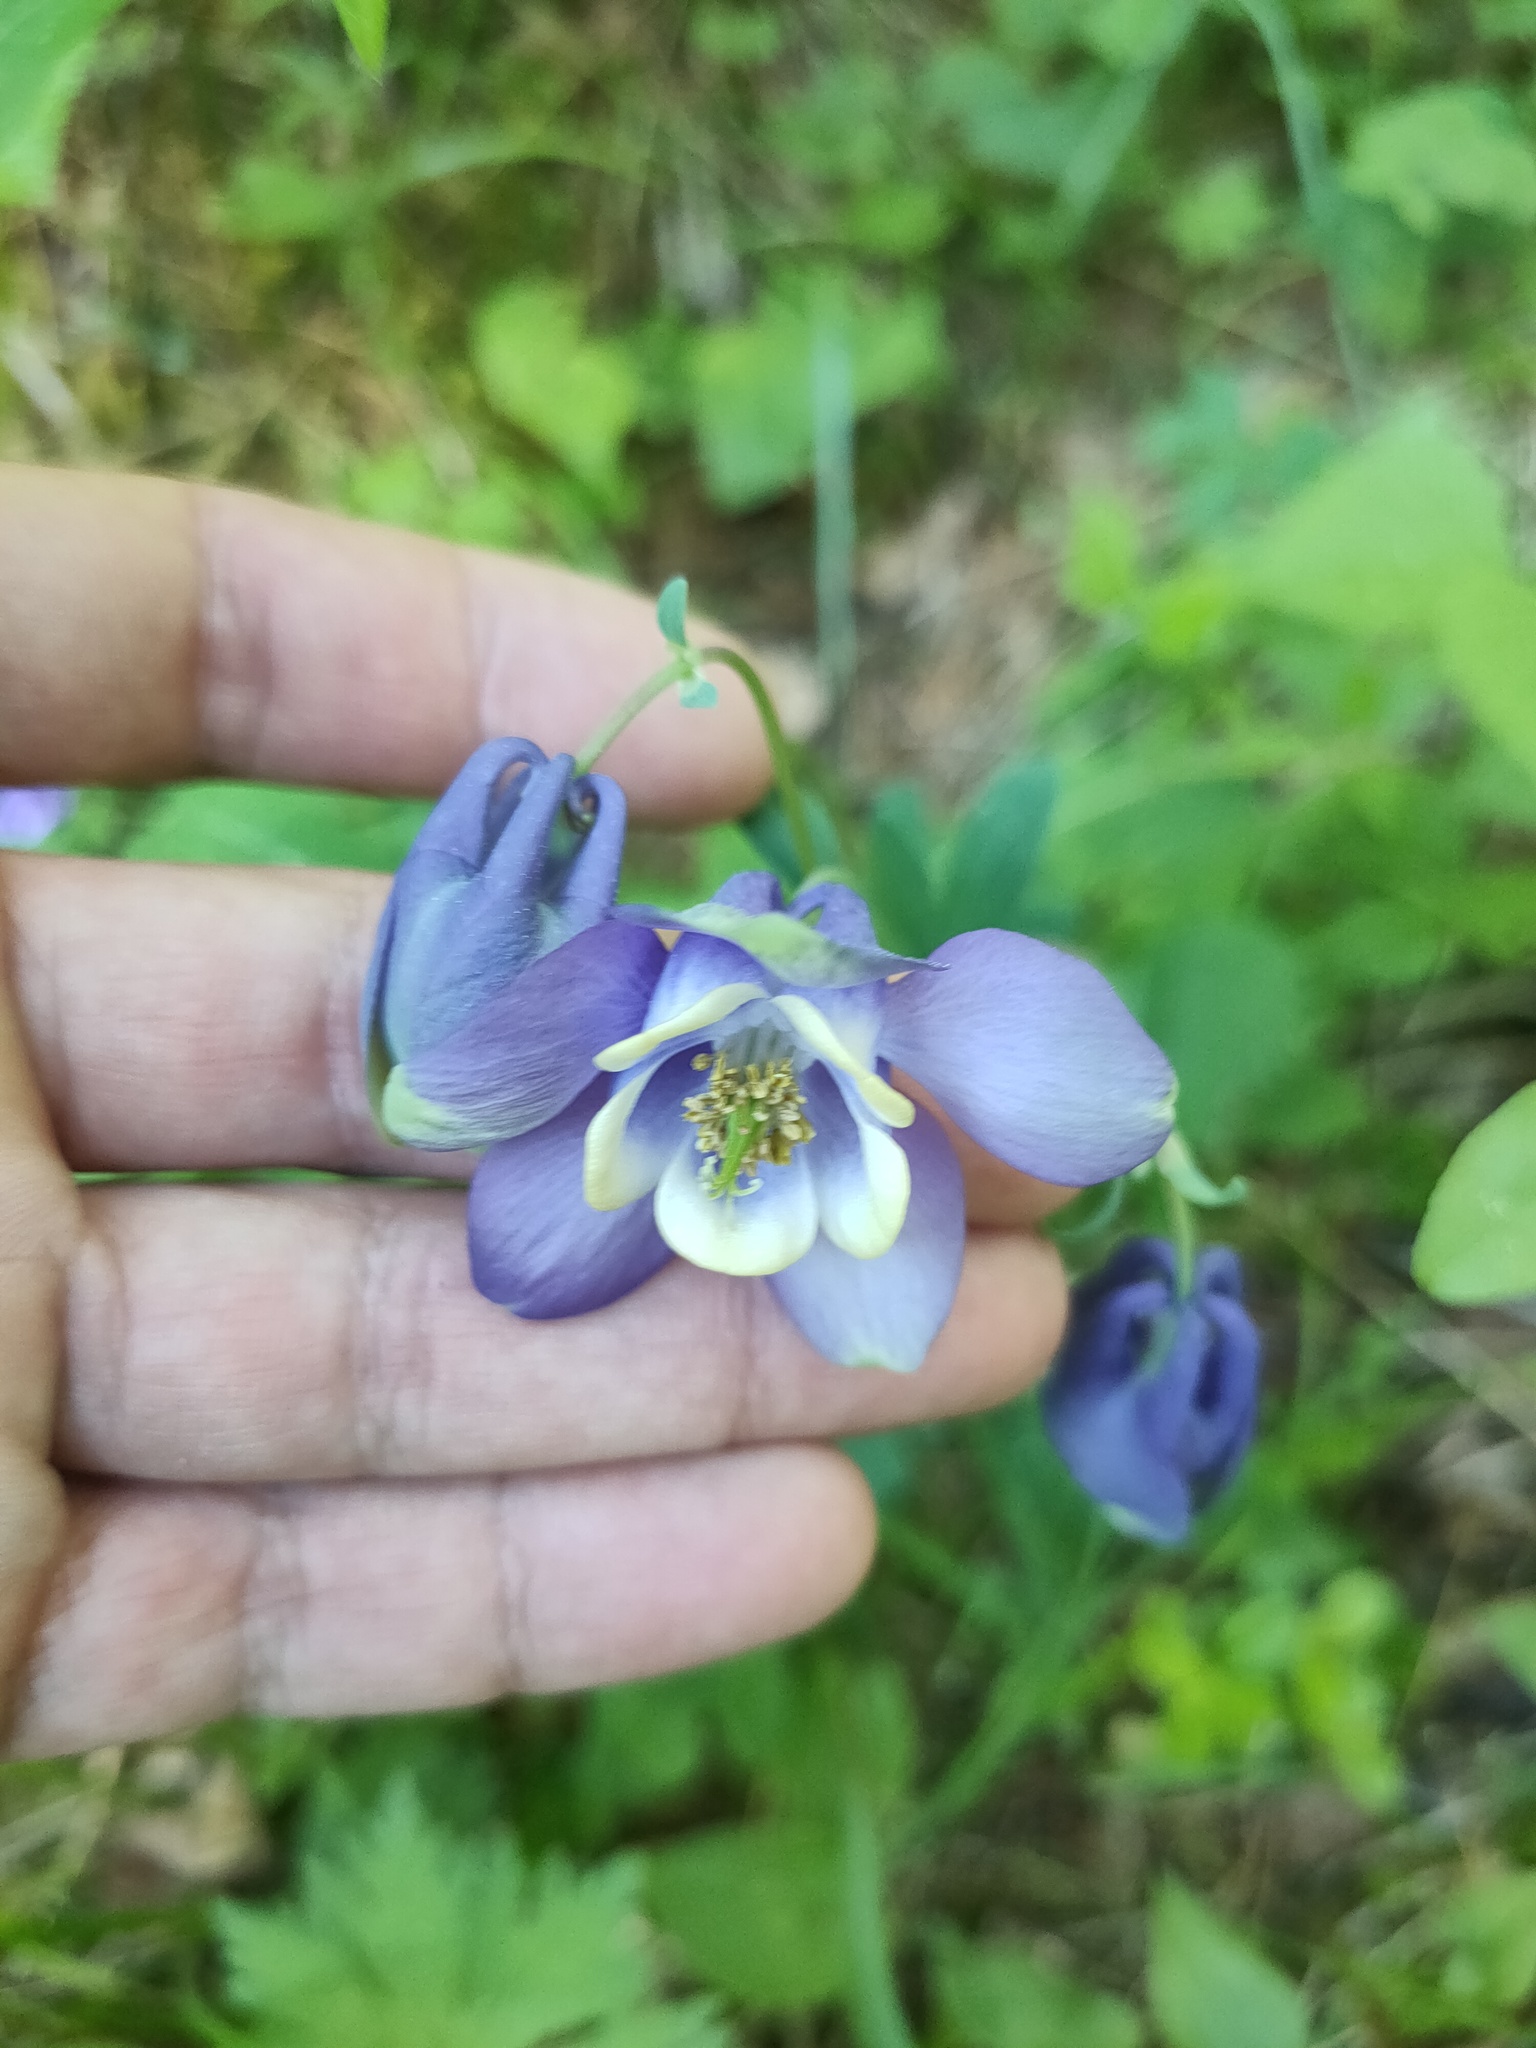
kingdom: Plantae
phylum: Tracheophyta
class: Magnoliopsida
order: Ranunculales
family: Ranunculaceae
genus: Aquilegia
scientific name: Aquilegia sibirica
